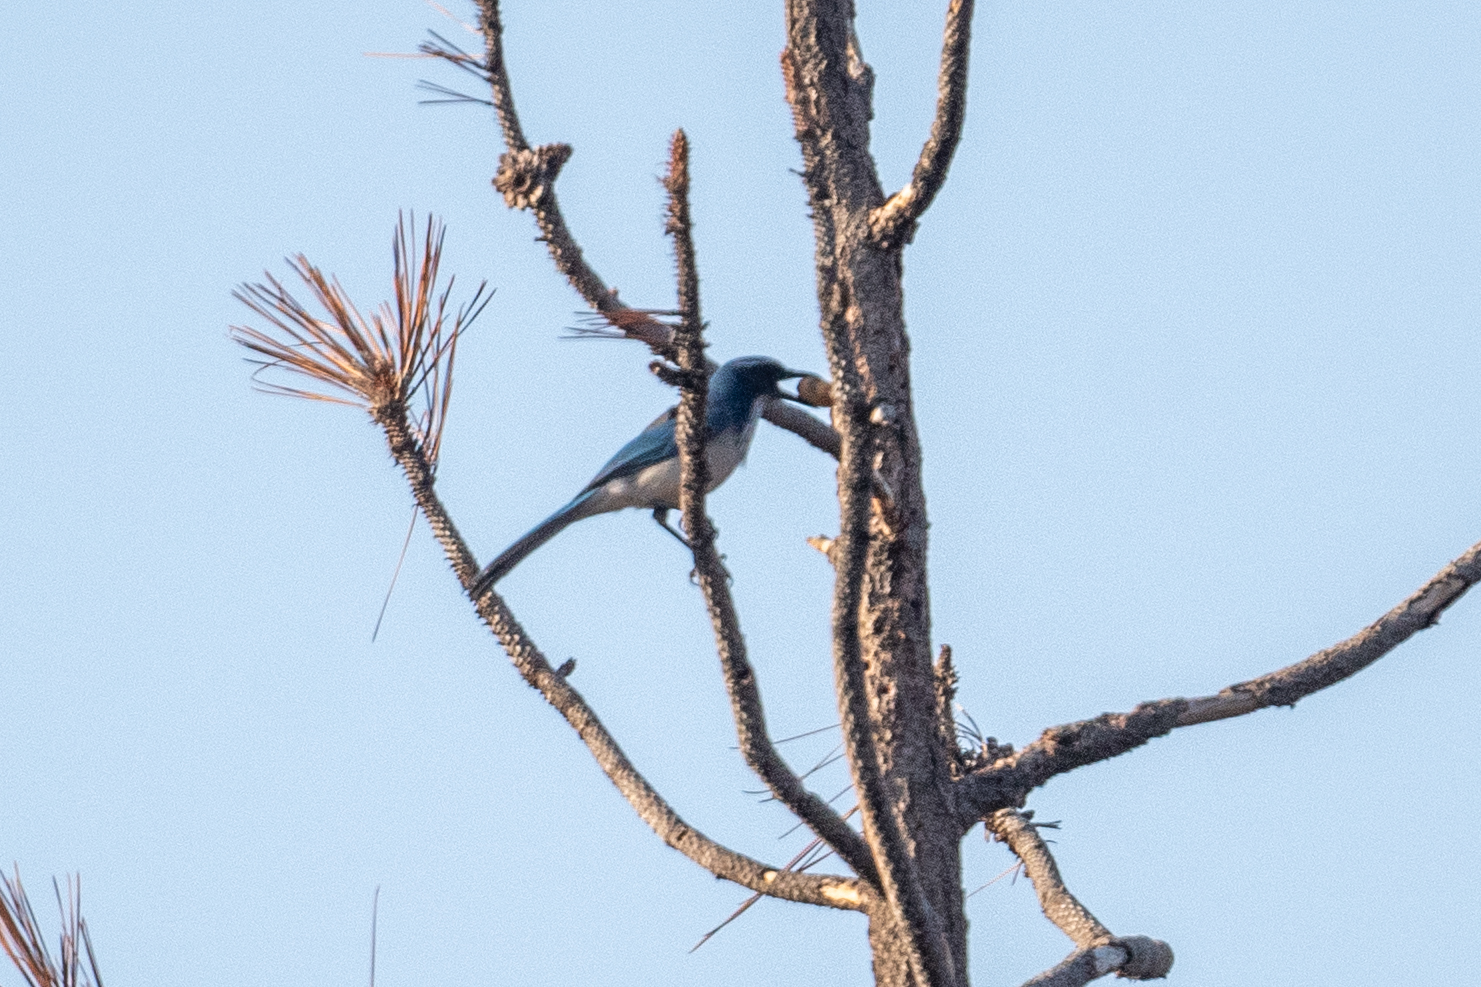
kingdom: Animalia
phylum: Chordata
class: Aves
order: Passeriformes
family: Corvidae
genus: Aphelocoma
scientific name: Aphelocoma californica
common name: California scrub-jay
